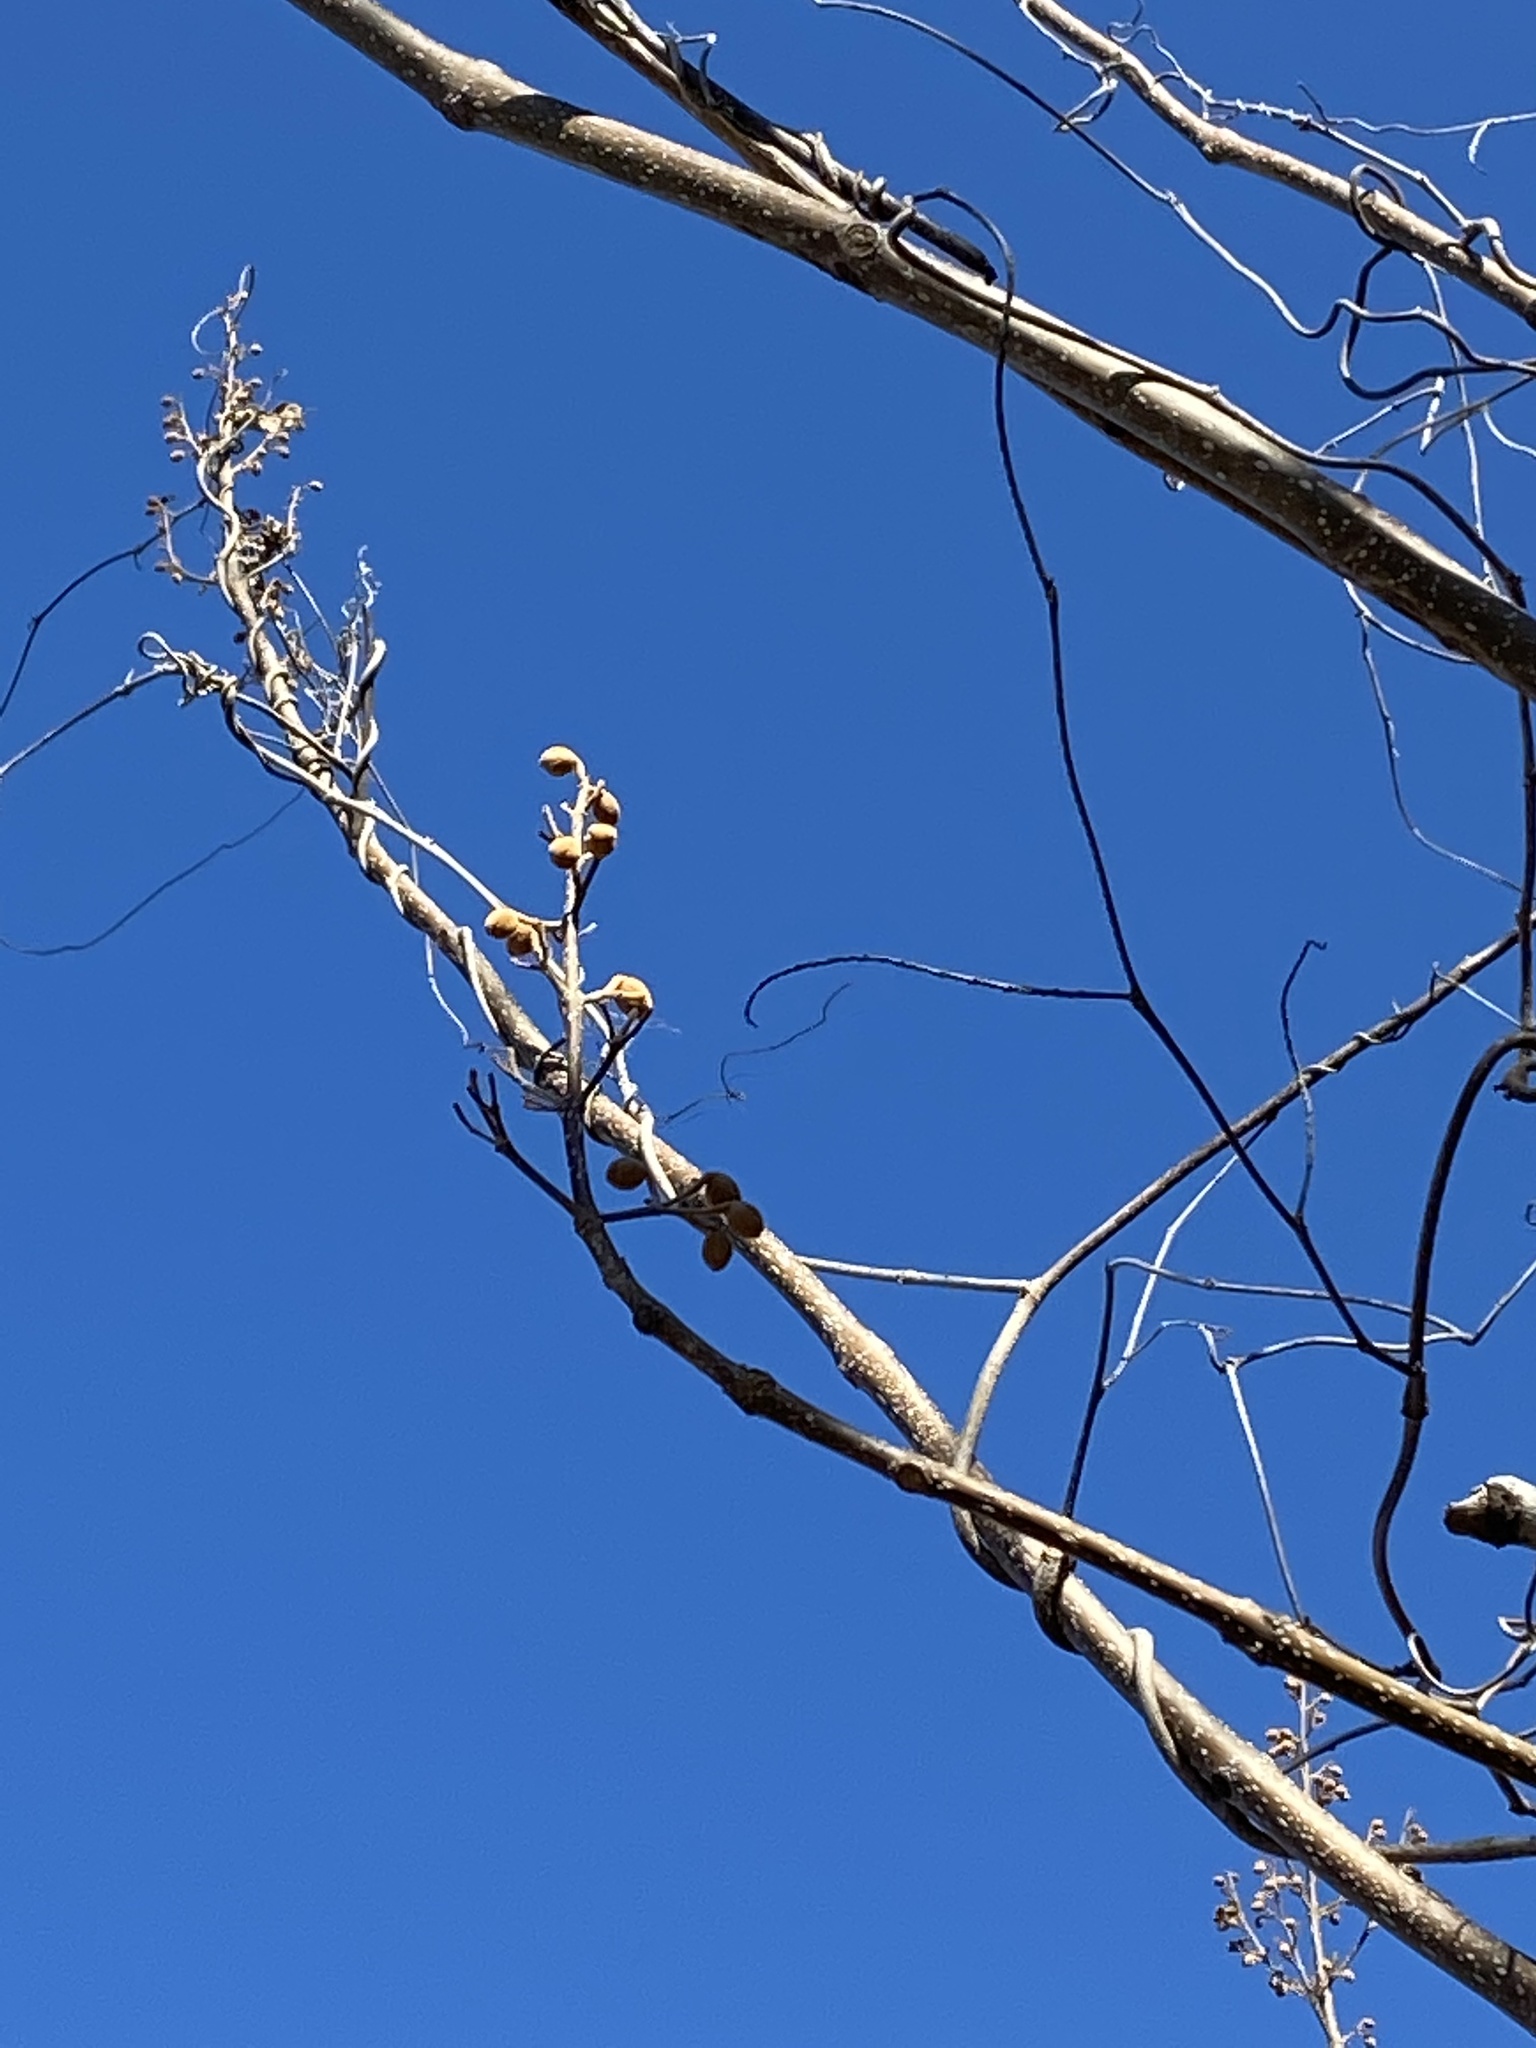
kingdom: Plantae
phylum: Tracheophyta
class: Magnoliopsida
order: Lamiales
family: Paulowniaceae
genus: Paulownia
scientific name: Paulownia tomentosa
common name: Foxglove-tree
